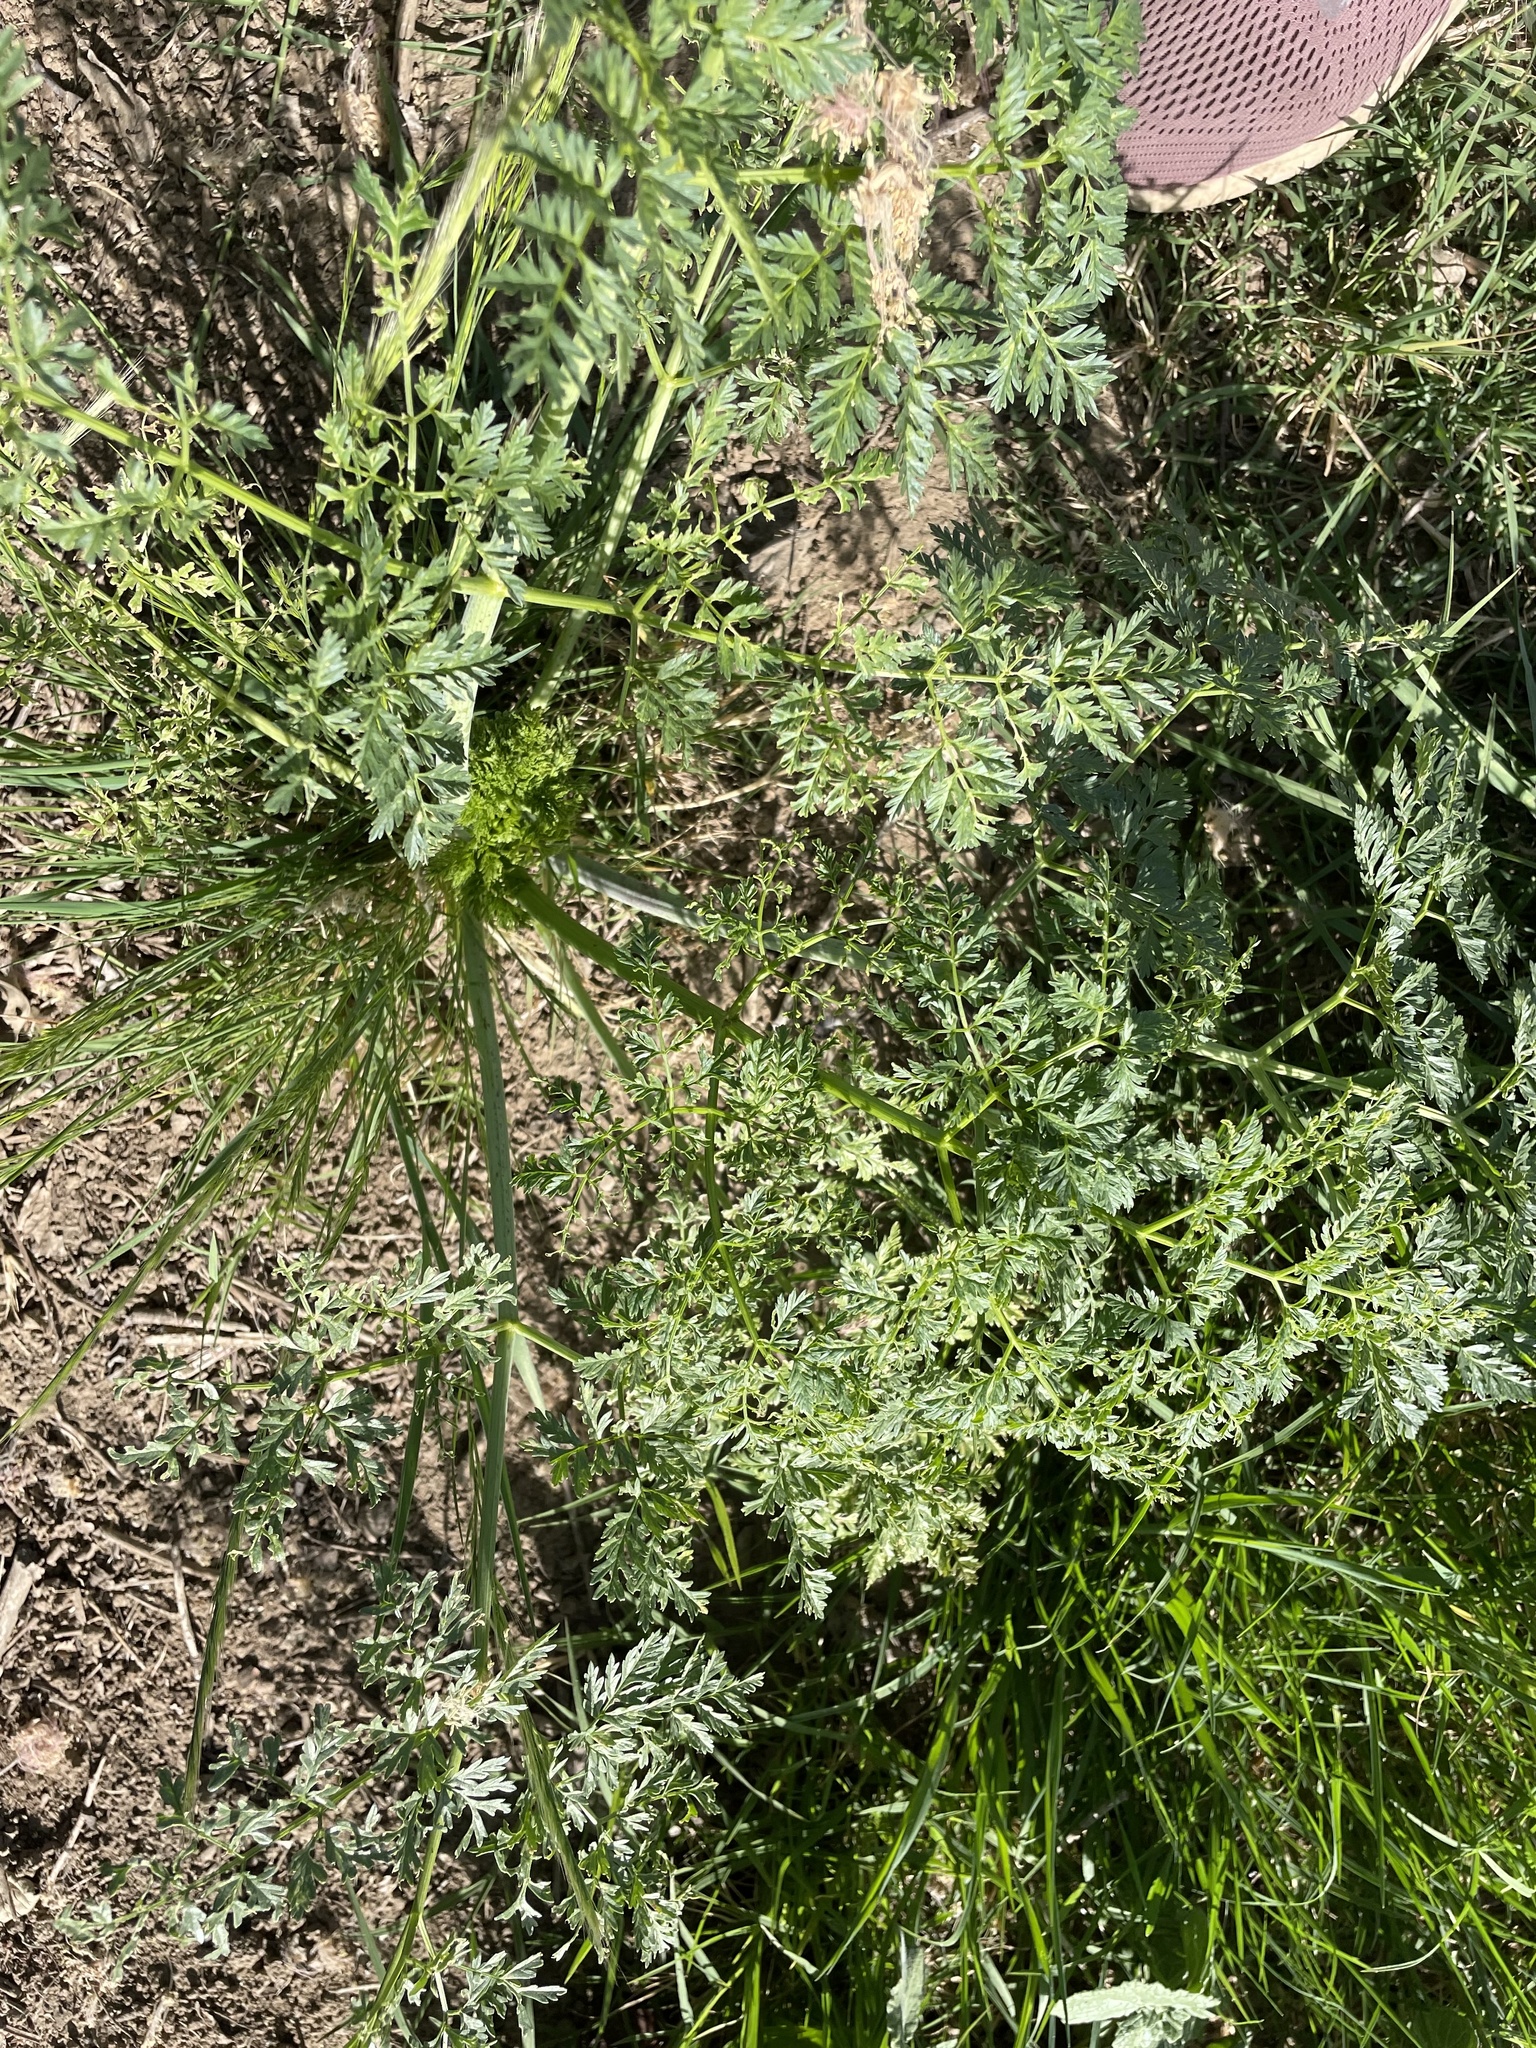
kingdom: Plantae
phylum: Tracheophyta
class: Magnoliopsida
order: Apiales
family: Apiaceae
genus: Conium
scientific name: Conium maculatum
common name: Hemlock
